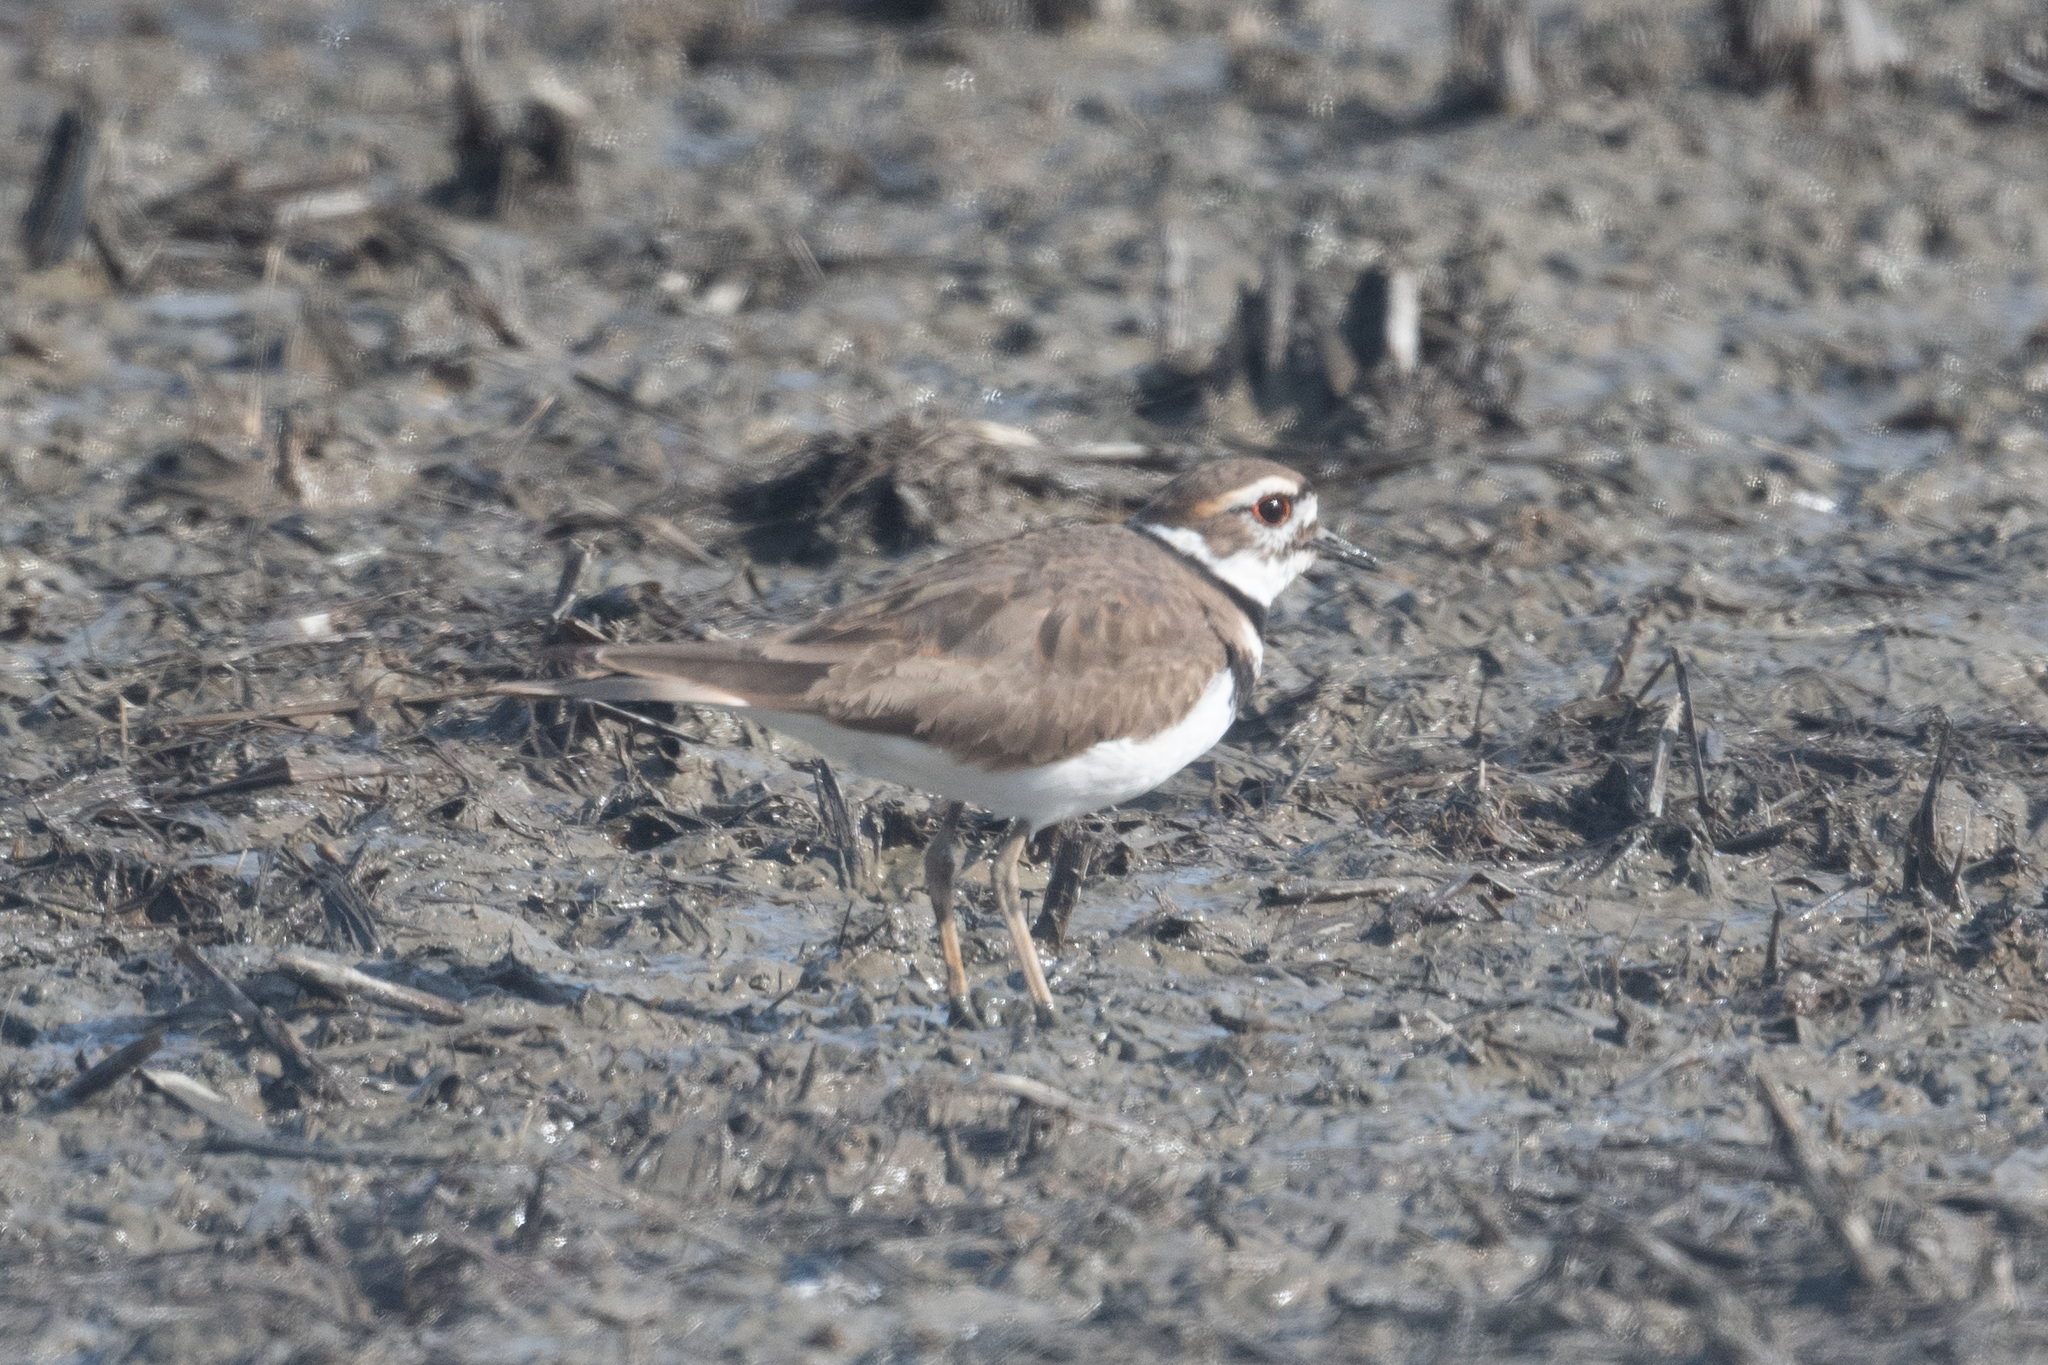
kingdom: Animalia
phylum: Chordata
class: Aves
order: Charadriiformes
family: Charadriidae
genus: Charadrius
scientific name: Charadrius vociferus
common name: Killdeer
